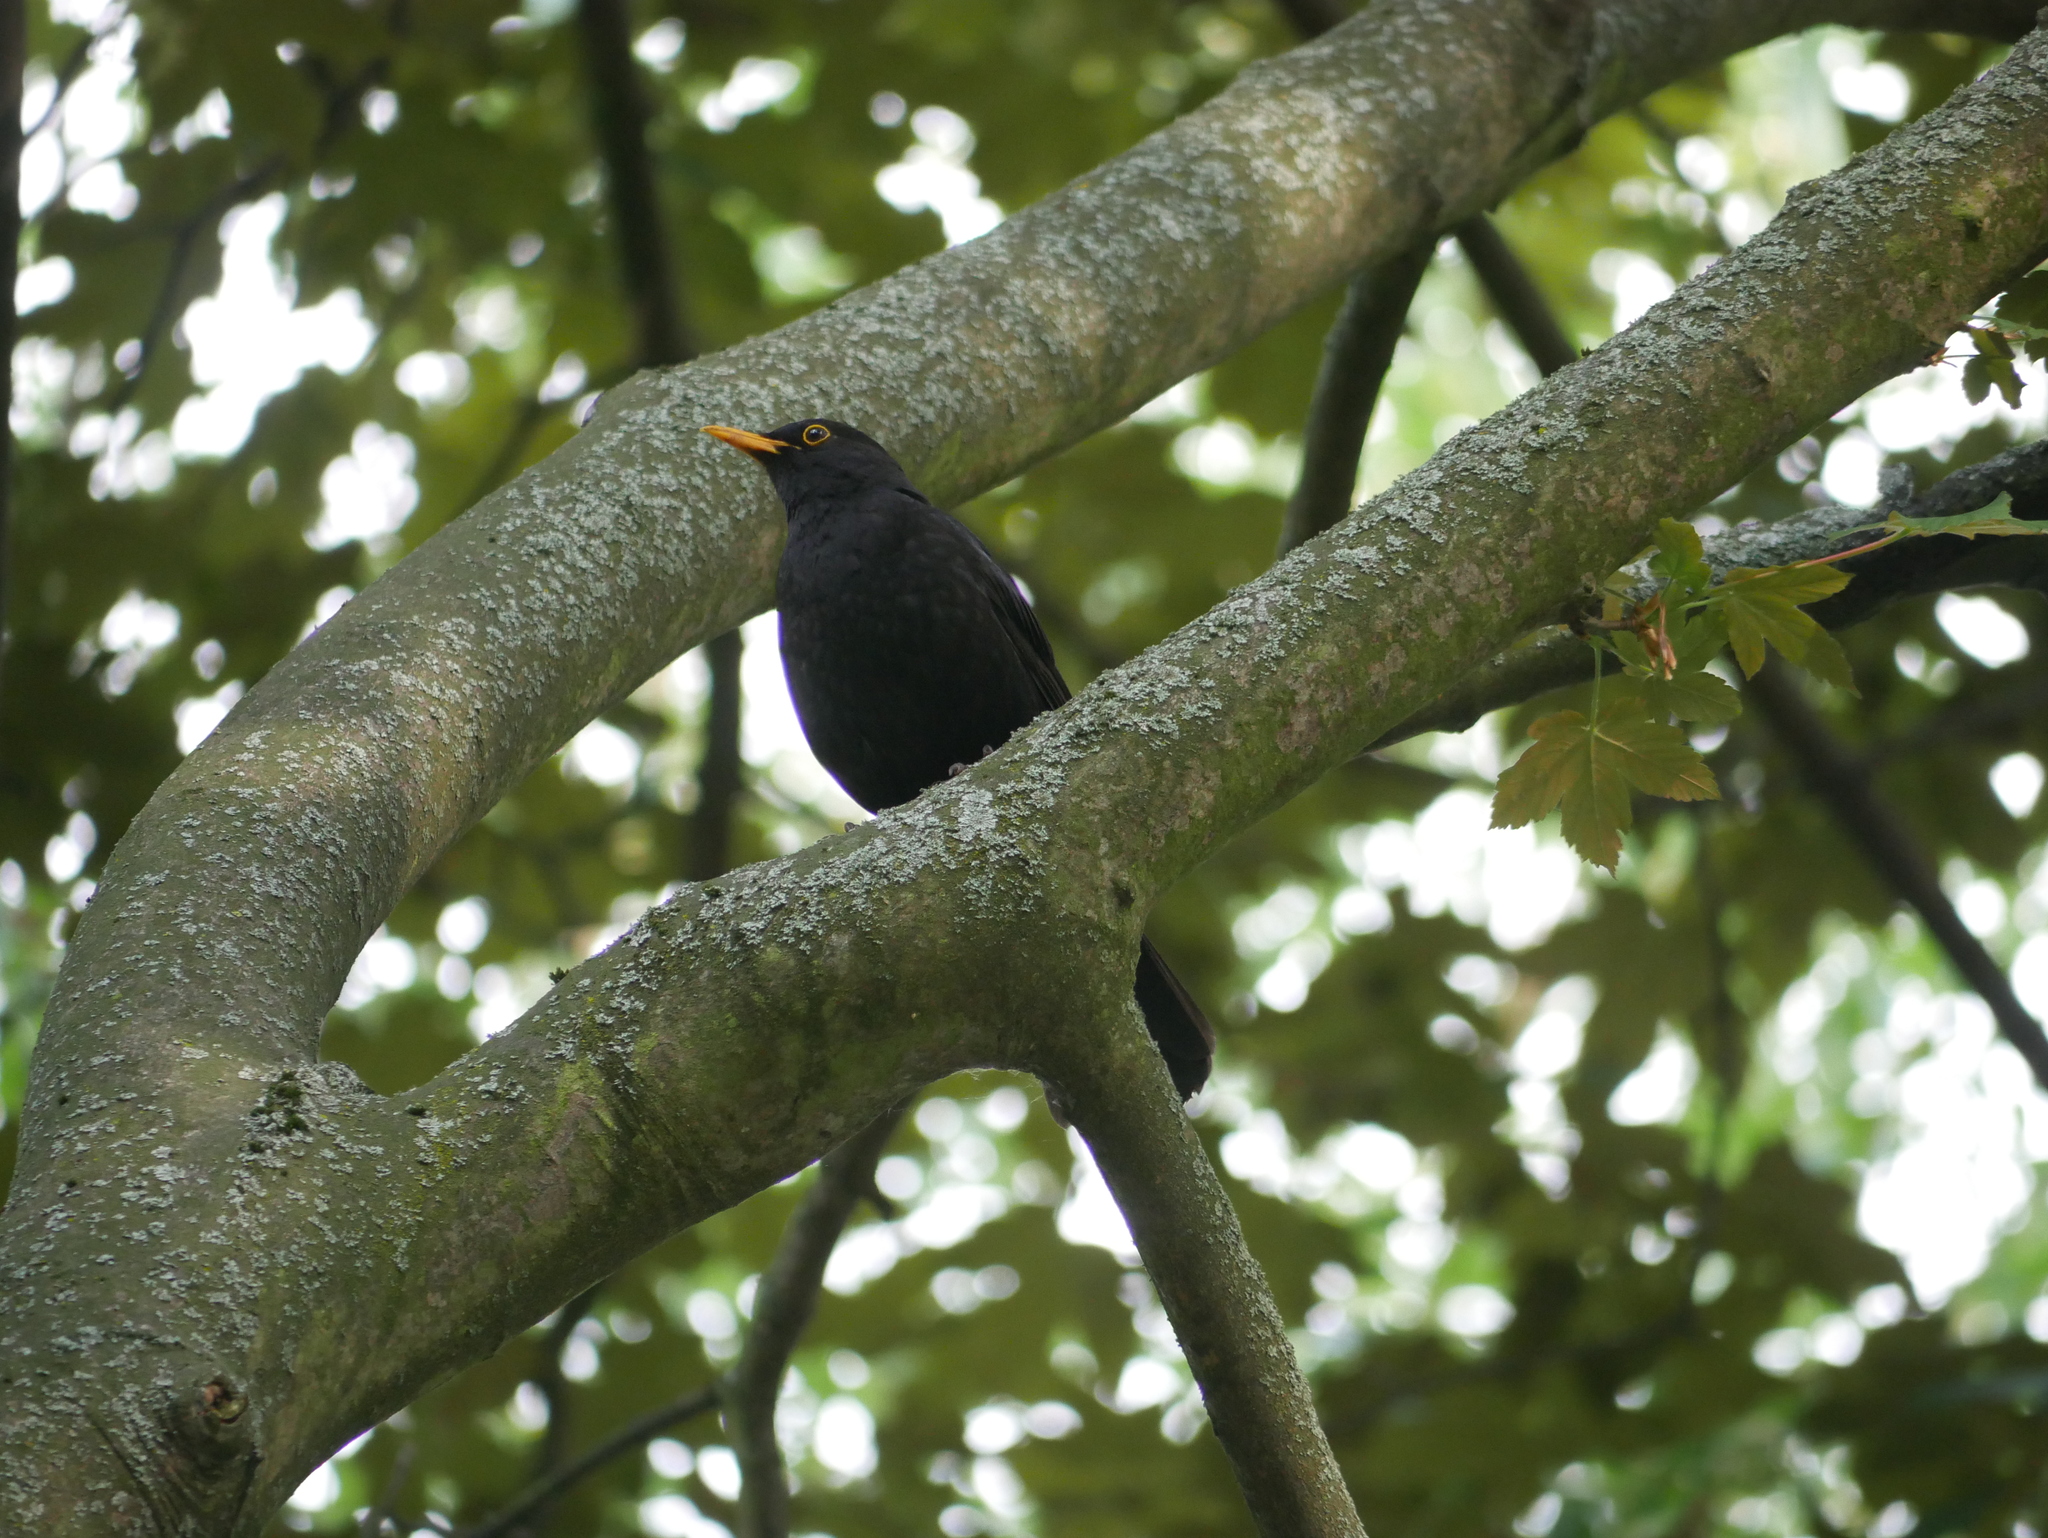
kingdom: Animalia
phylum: Chordata
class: Aves
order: Passeriformes
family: Turdidae
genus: Turdus
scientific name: Turdus merula
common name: Common blackbird
